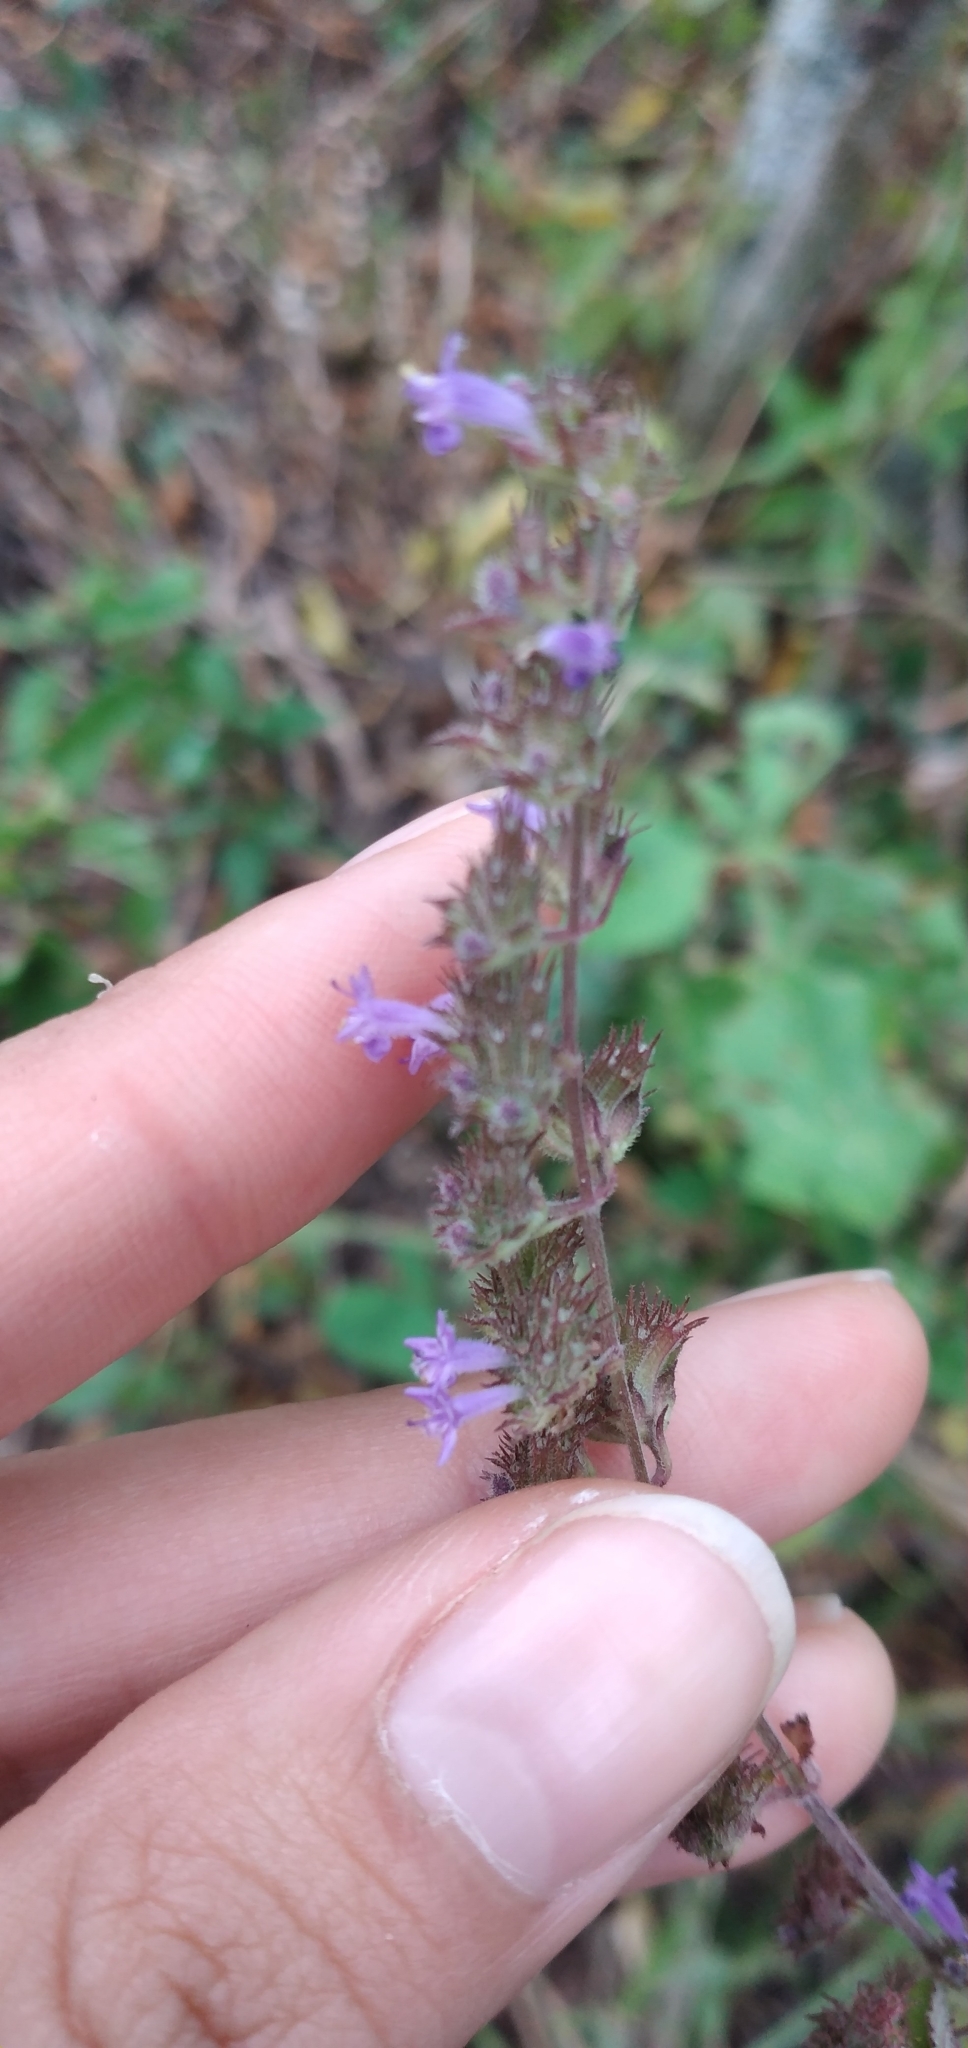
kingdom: Plantae
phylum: Tracheophyta
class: Magnoliopsida
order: Lamiales
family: Lamiaceae
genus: Cantinoa
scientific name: Cantinoa mutabilis
